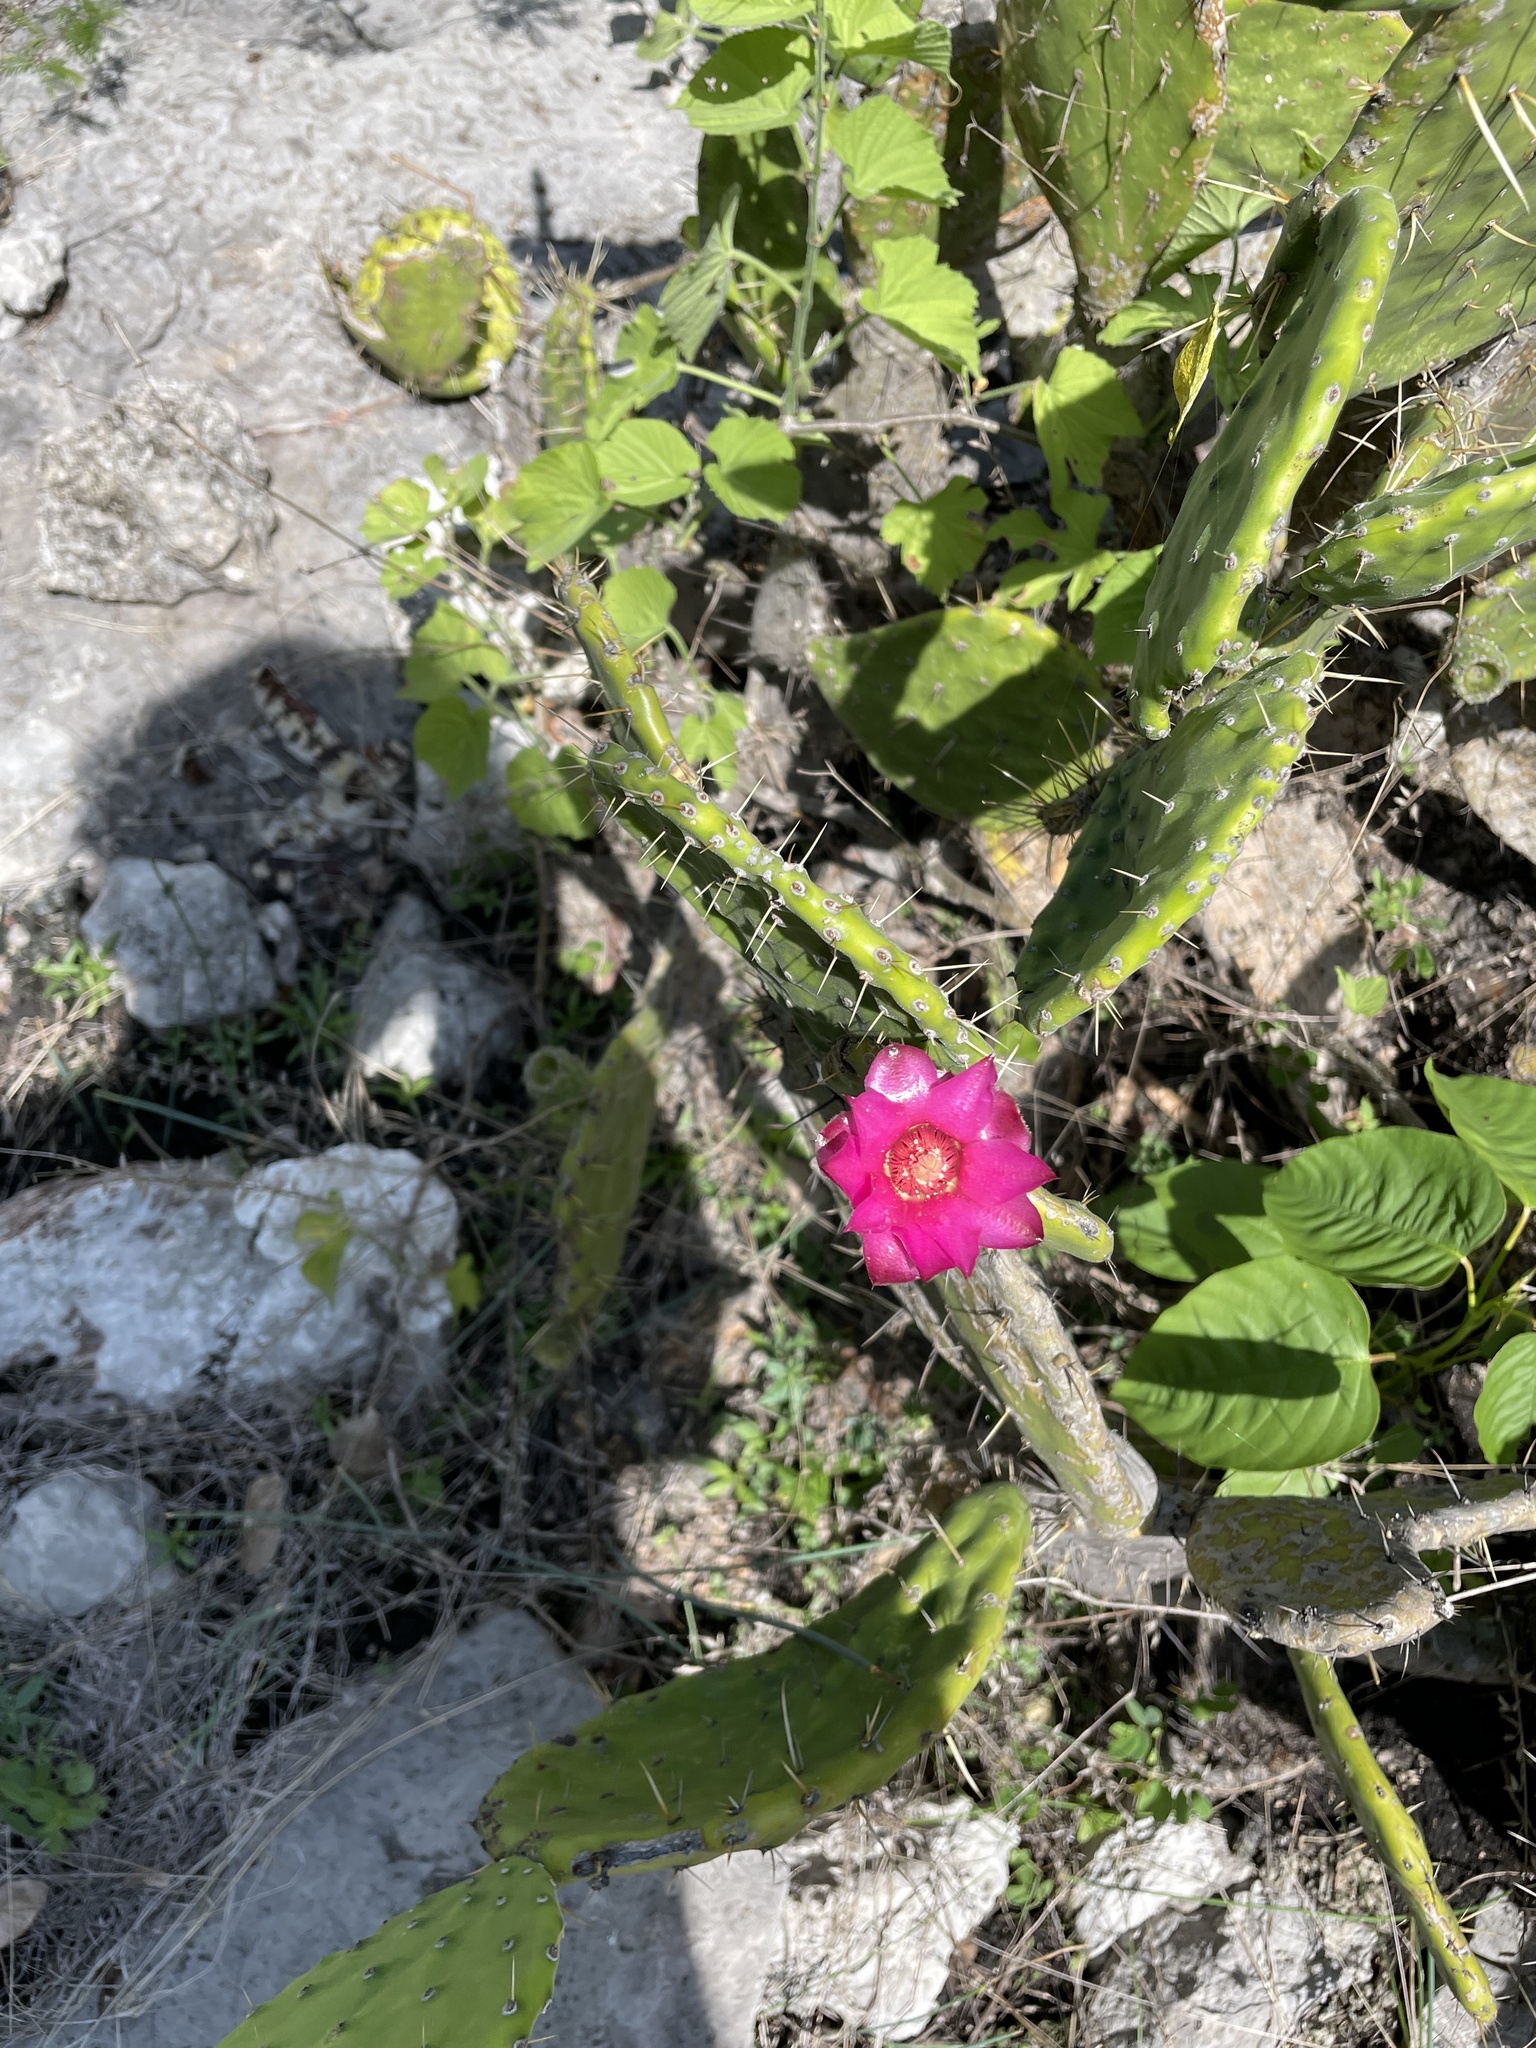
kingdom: Plantae
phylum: Tracheophyta
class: Magnoliopsida
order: Caryophyllales
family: Cactaceae
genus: Opuntia
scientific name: Opuntia depressa
